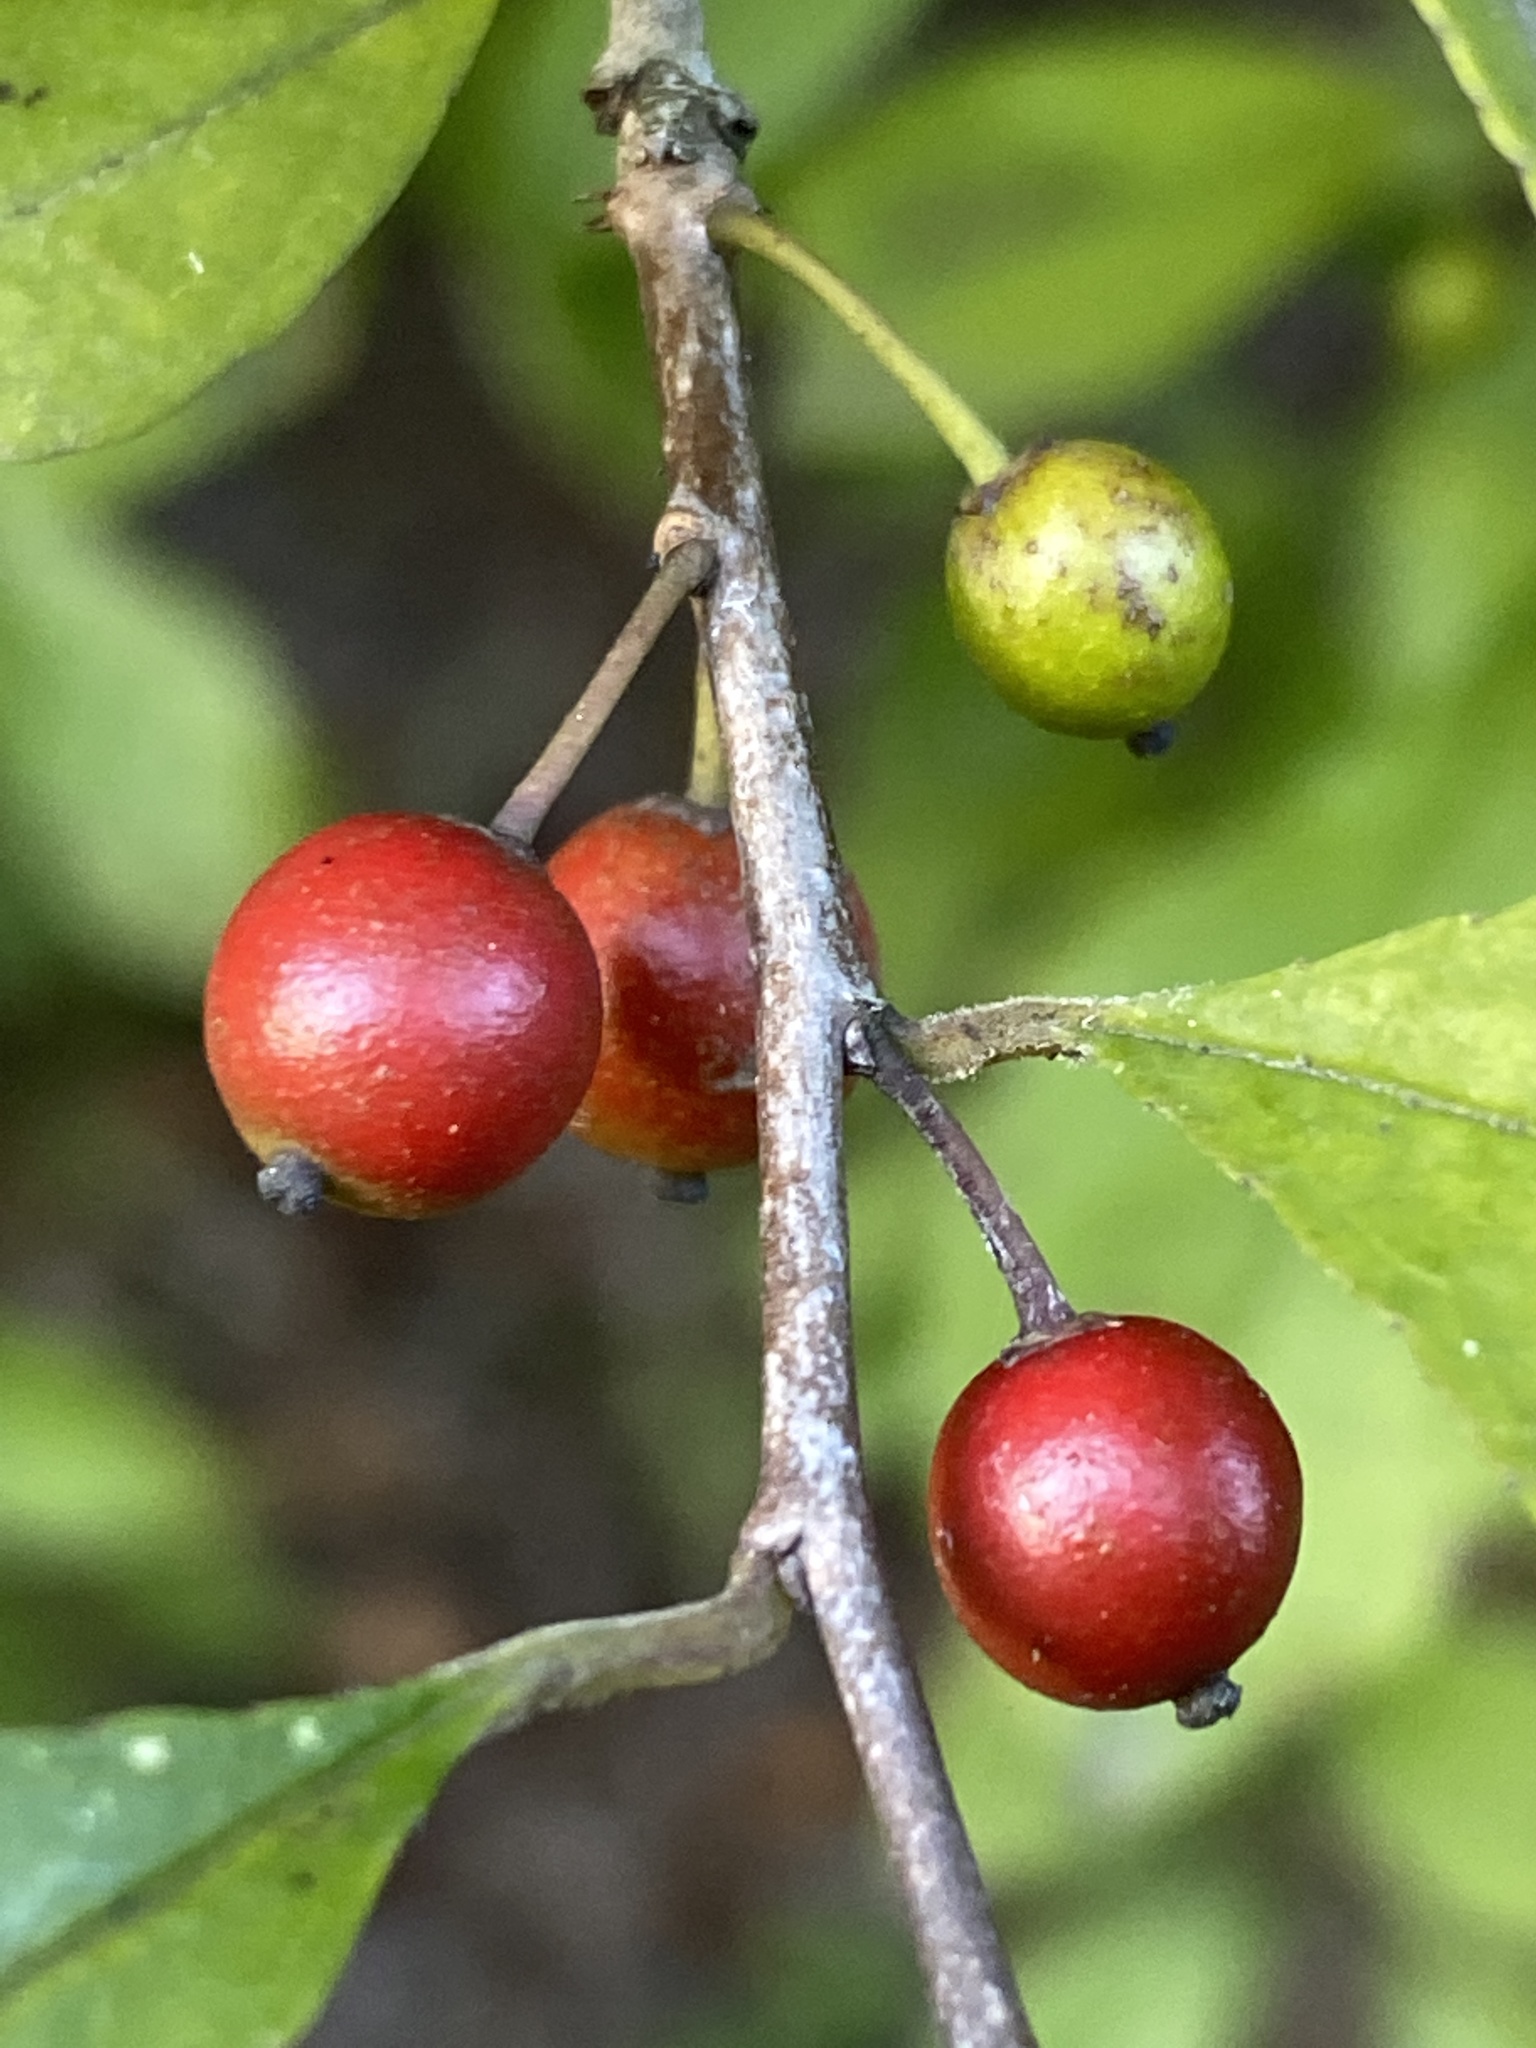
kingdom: Plantae
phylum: Tracheophyta
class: Magnoliopsida
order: Aquifoliales
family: Aquifoliaceae
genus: Ilex
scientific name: Ilex decidua
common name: Possum-haw
